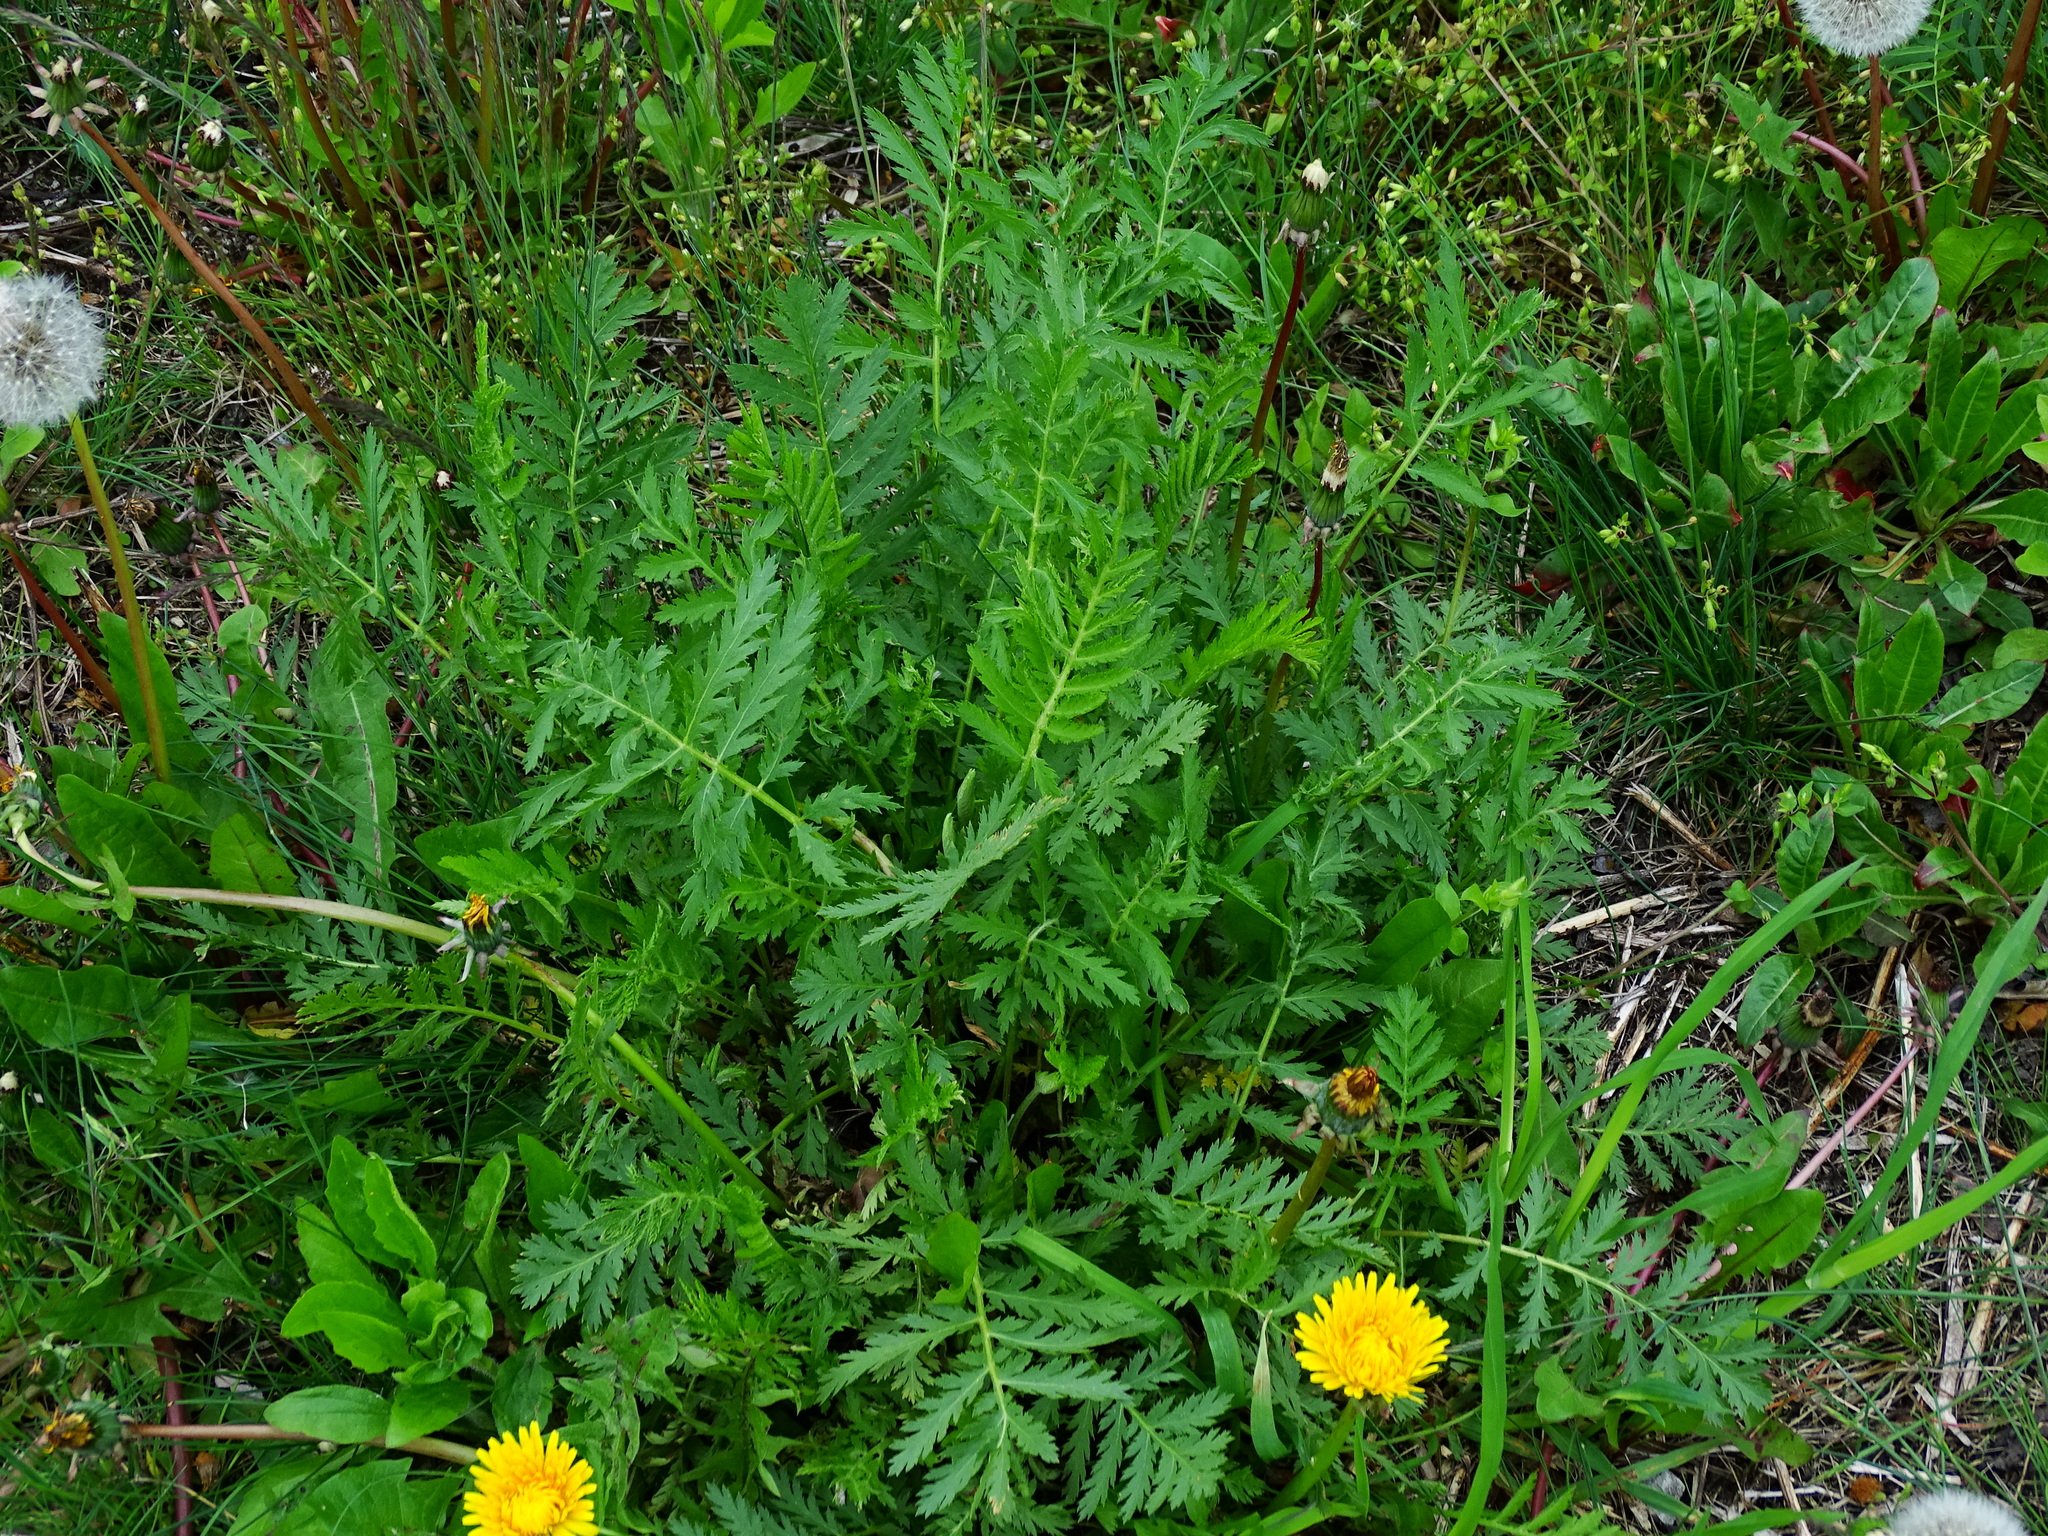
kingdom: Plantae
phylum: Tracheophyta
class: Magnoliopsida
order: Asterales
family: Asteraceae
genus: Tanacetum
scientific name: Tanacetum vulgare
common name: Common tansy
